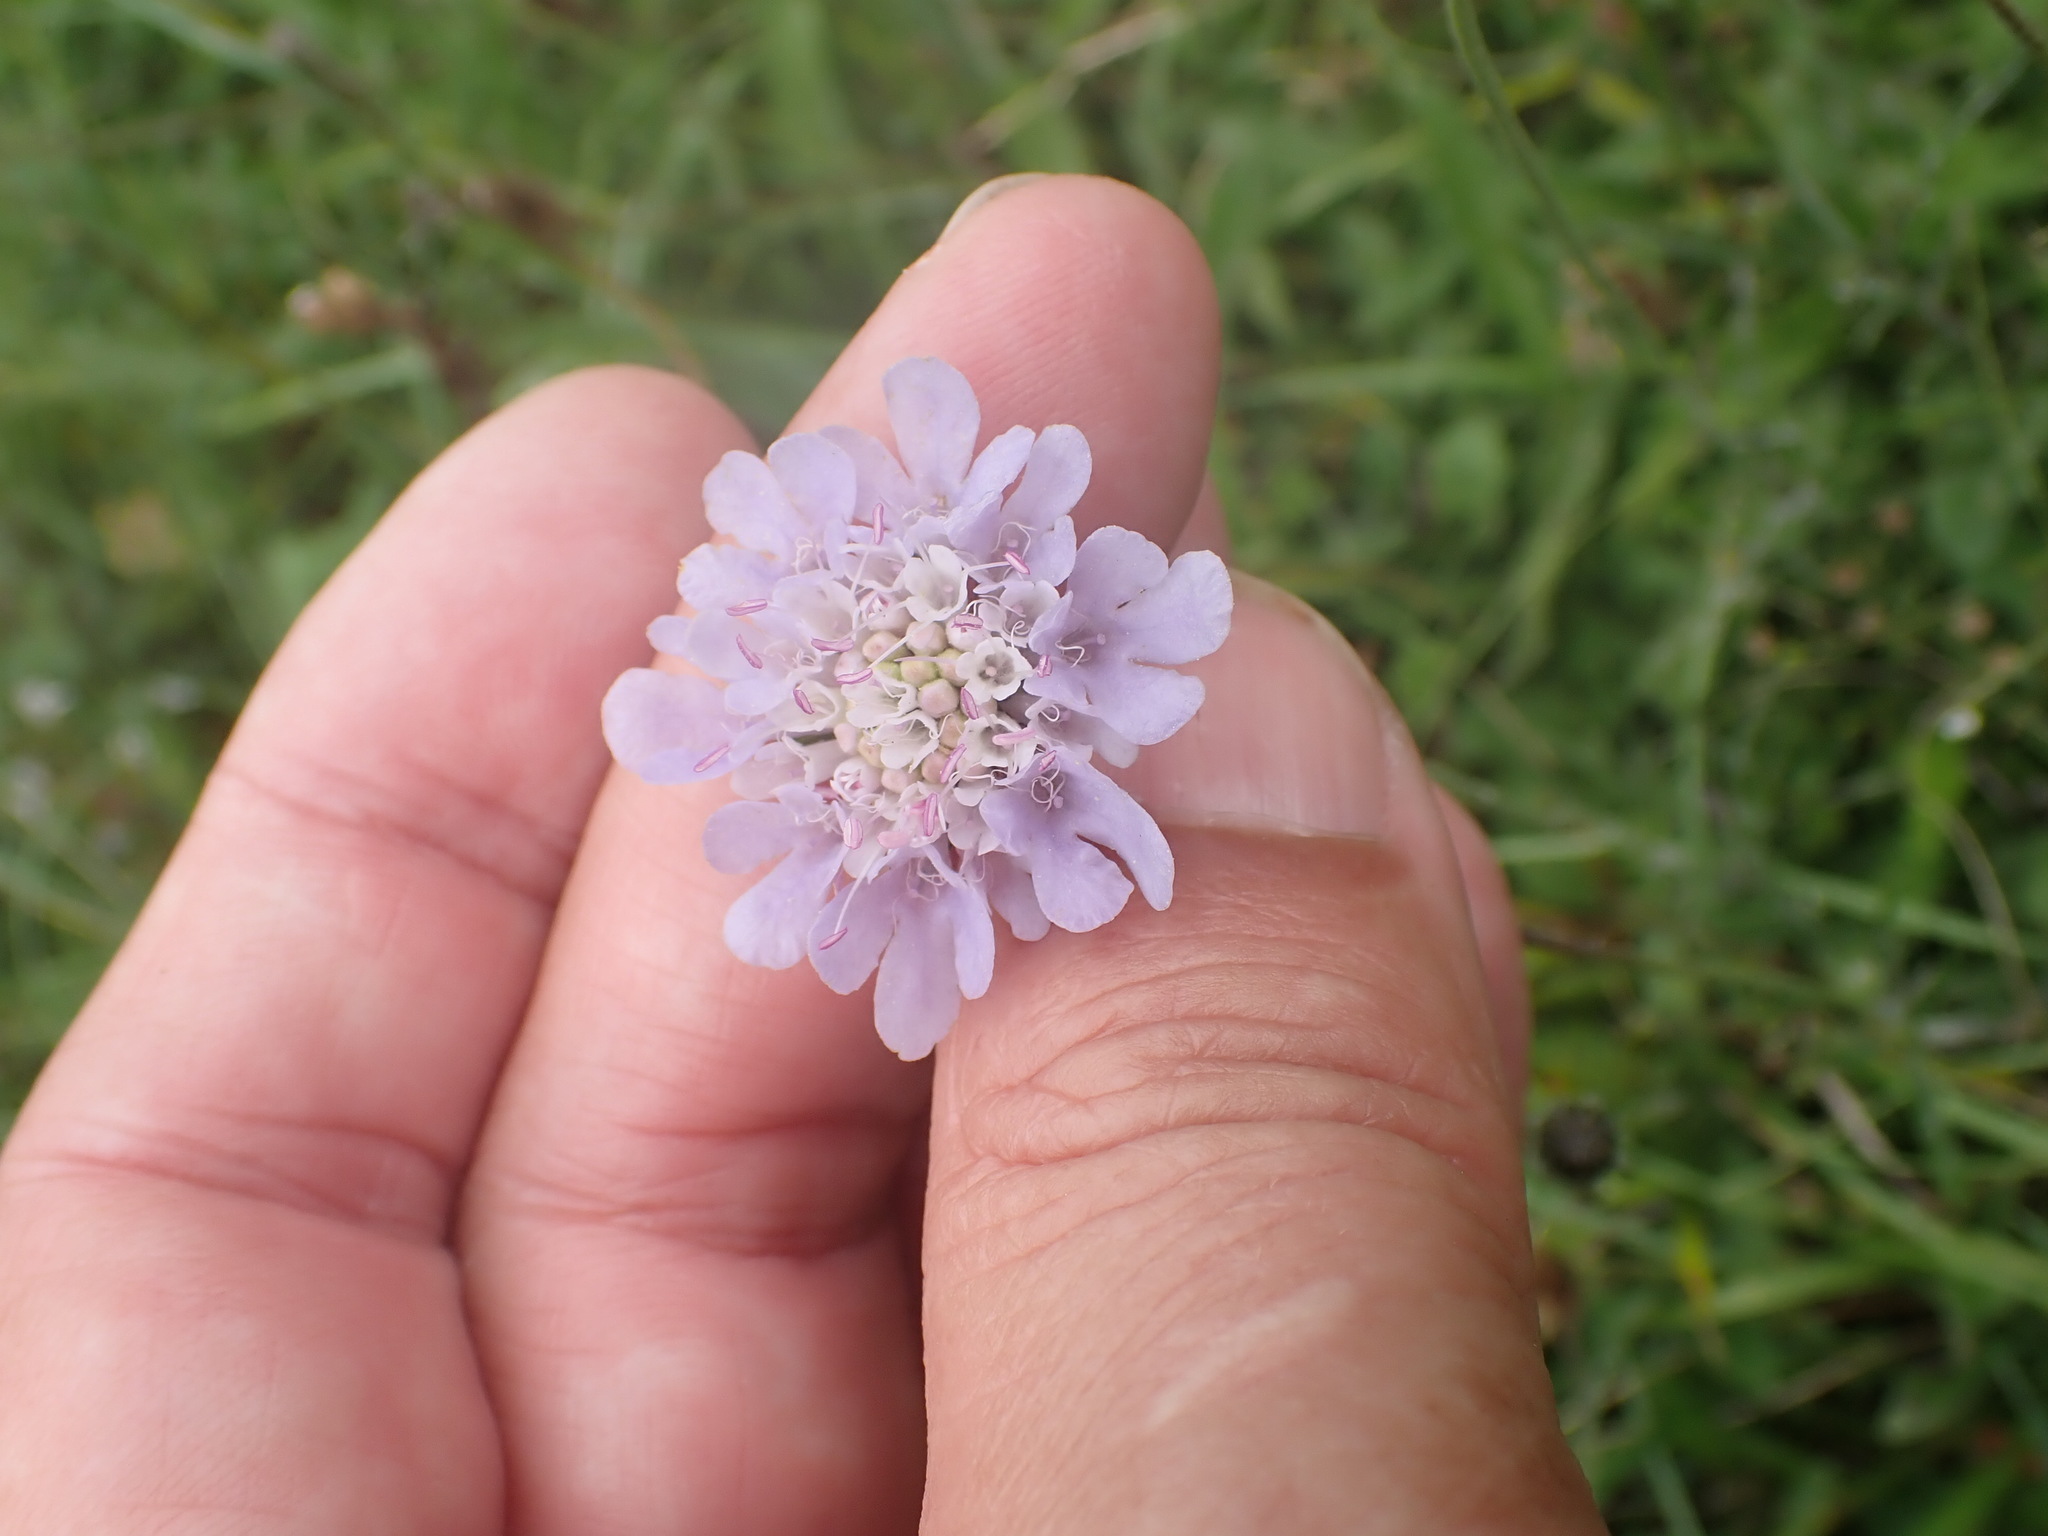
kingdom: Plantae
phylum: Tracheophyta
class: Magnoliopsida
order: Dipsacales
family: Caprifoliaceae
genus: Scabiosa
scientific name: Scabiosa columbaria
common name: Small scabious
